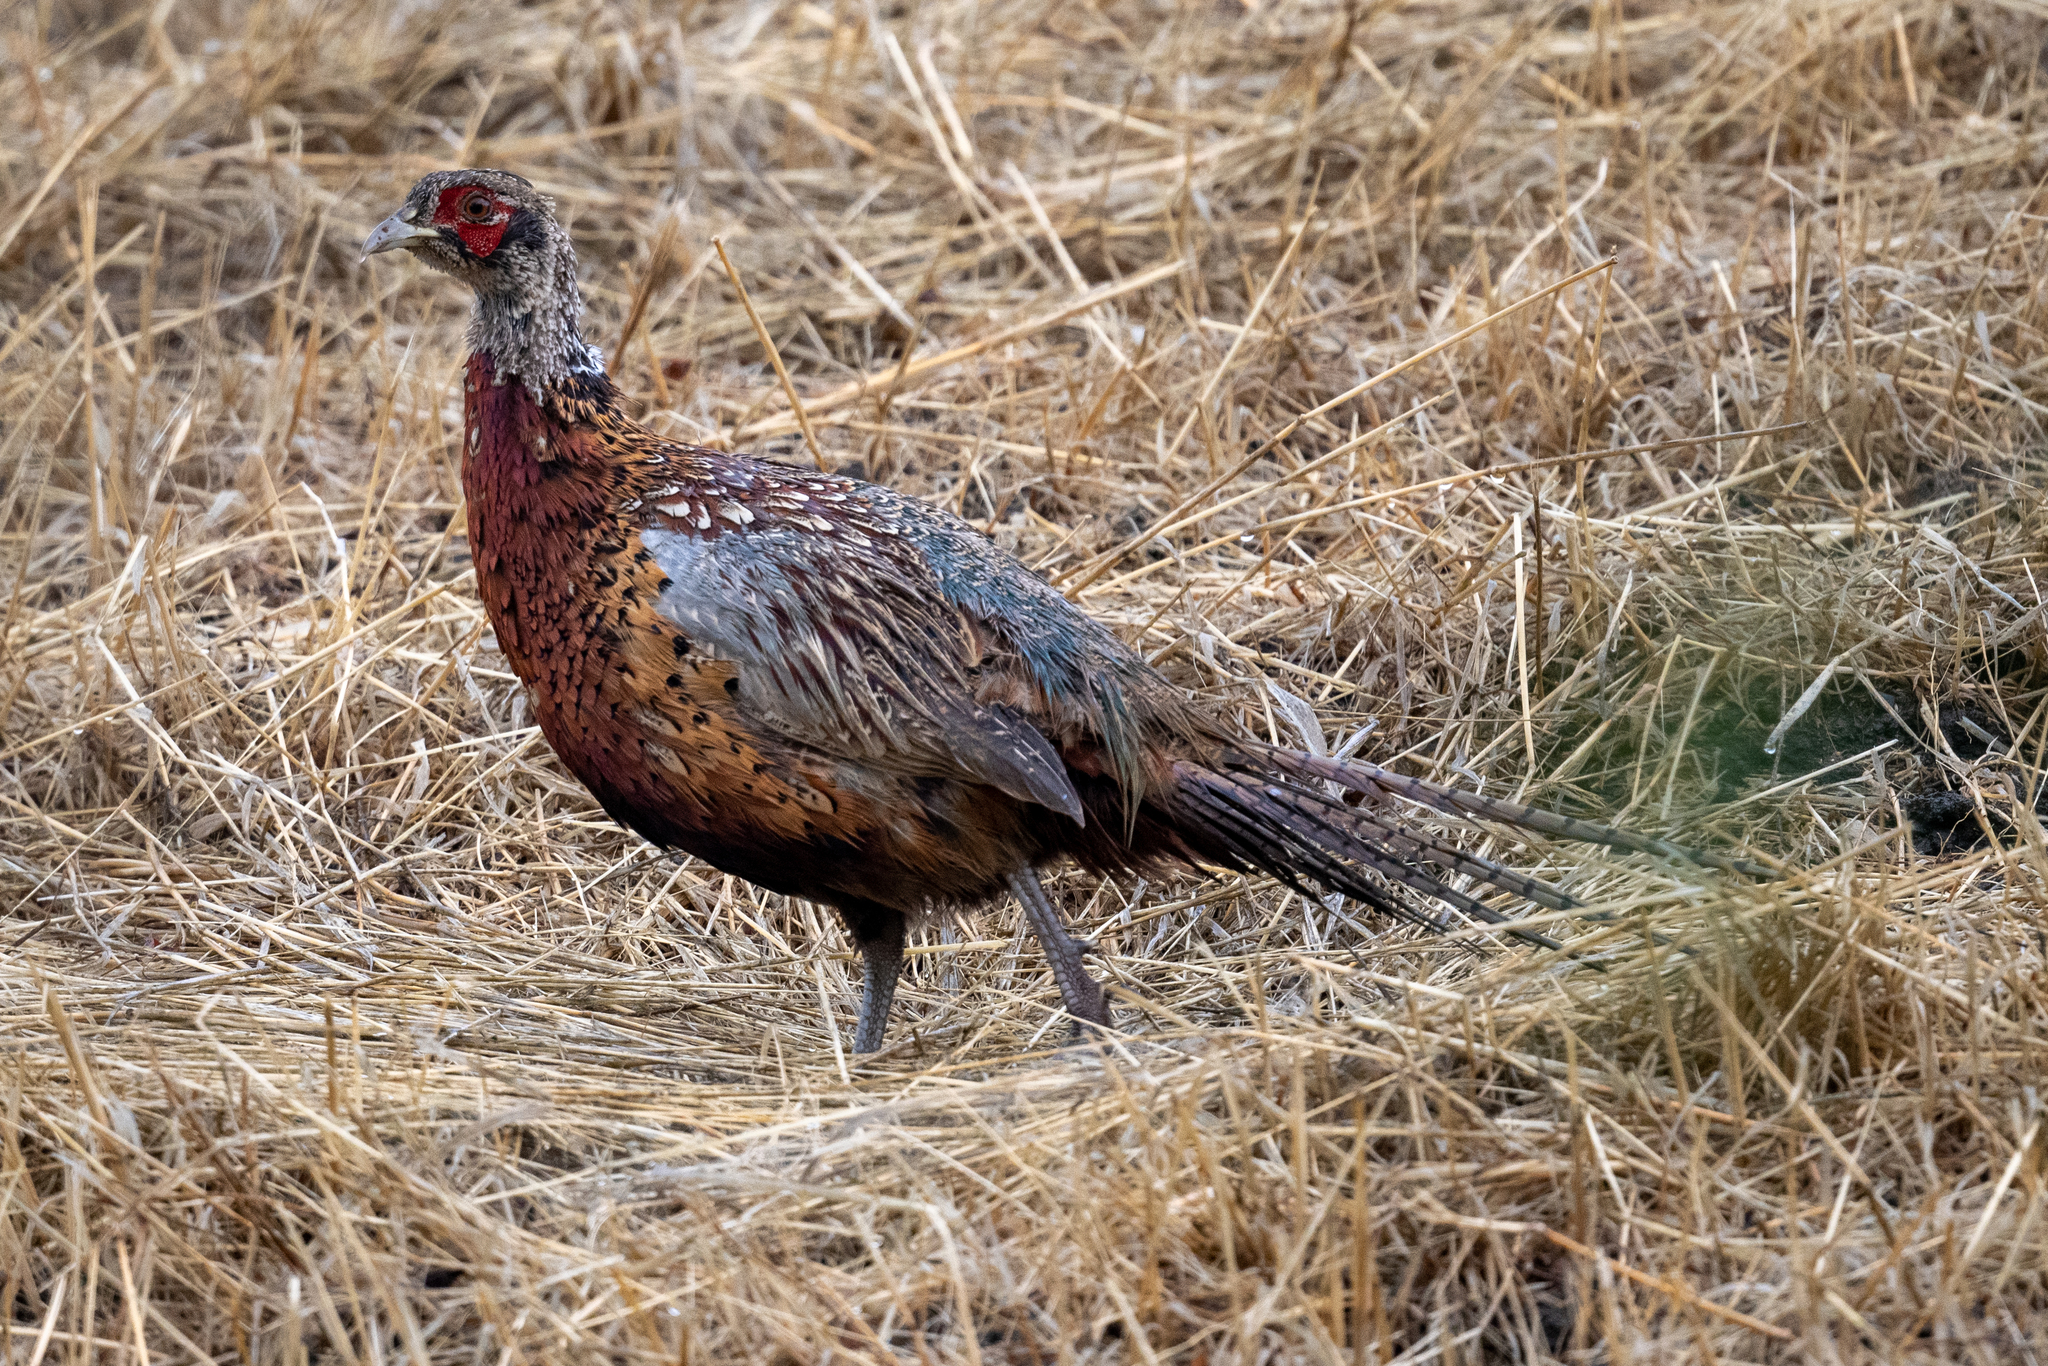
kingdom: Animalia
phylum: Chordata
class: Aves
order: Galliformes
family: Phasianidae
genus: Phasianus
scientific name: Phasianus colchicus
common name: Common pheasant
